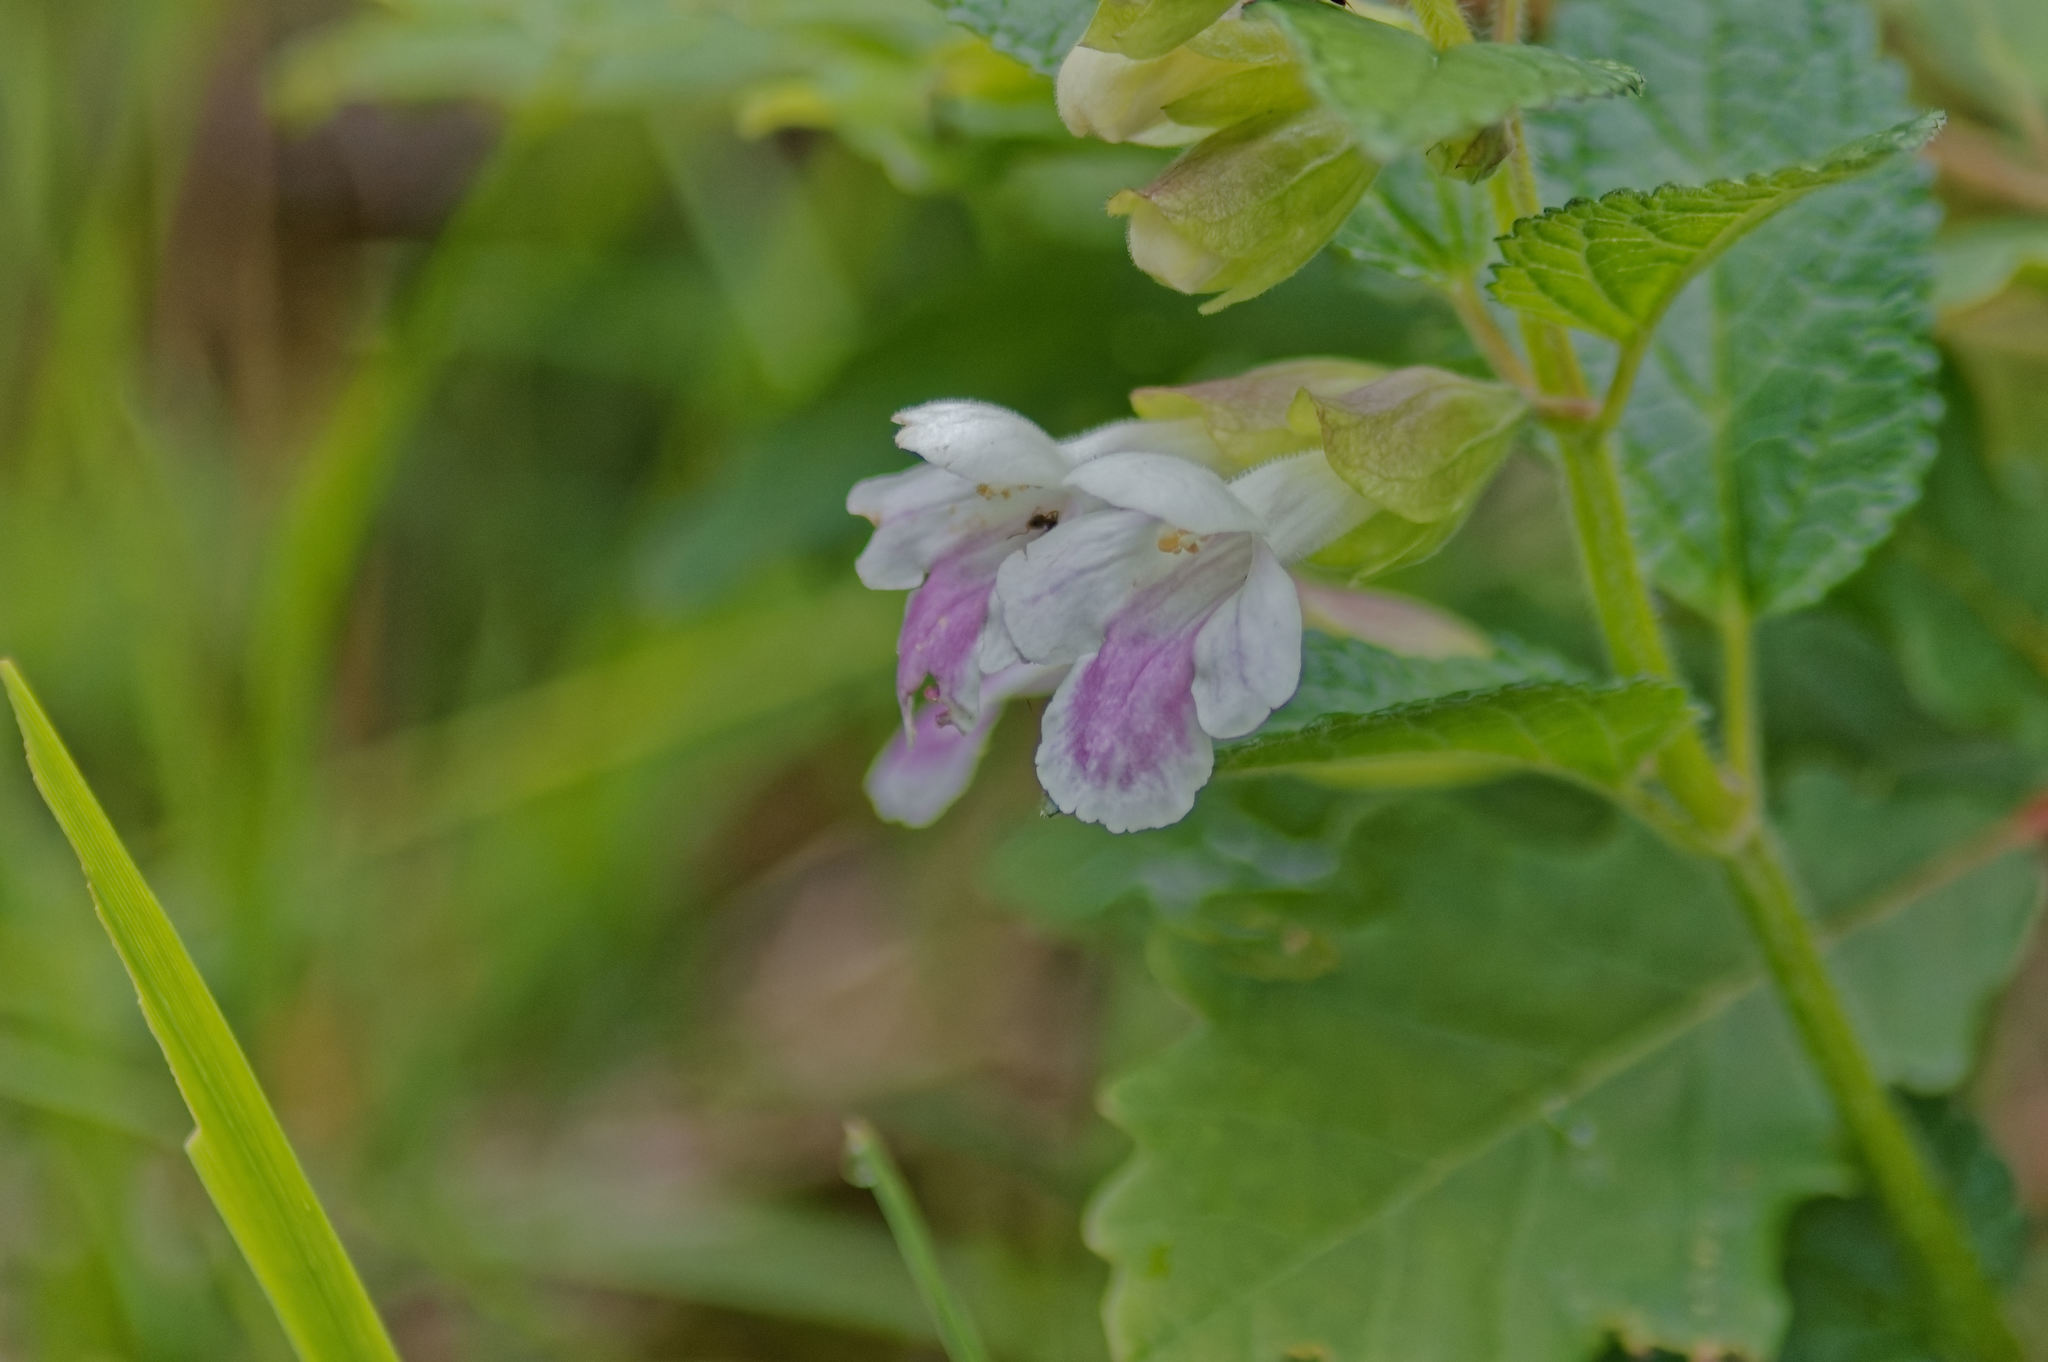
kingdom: Plantae
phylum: Tracheophyta
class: Magnoliopsida
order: Lamiales
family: Lamiaceae
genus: Melittis
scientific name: Melittis melissophyllum
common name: Bastard balm
